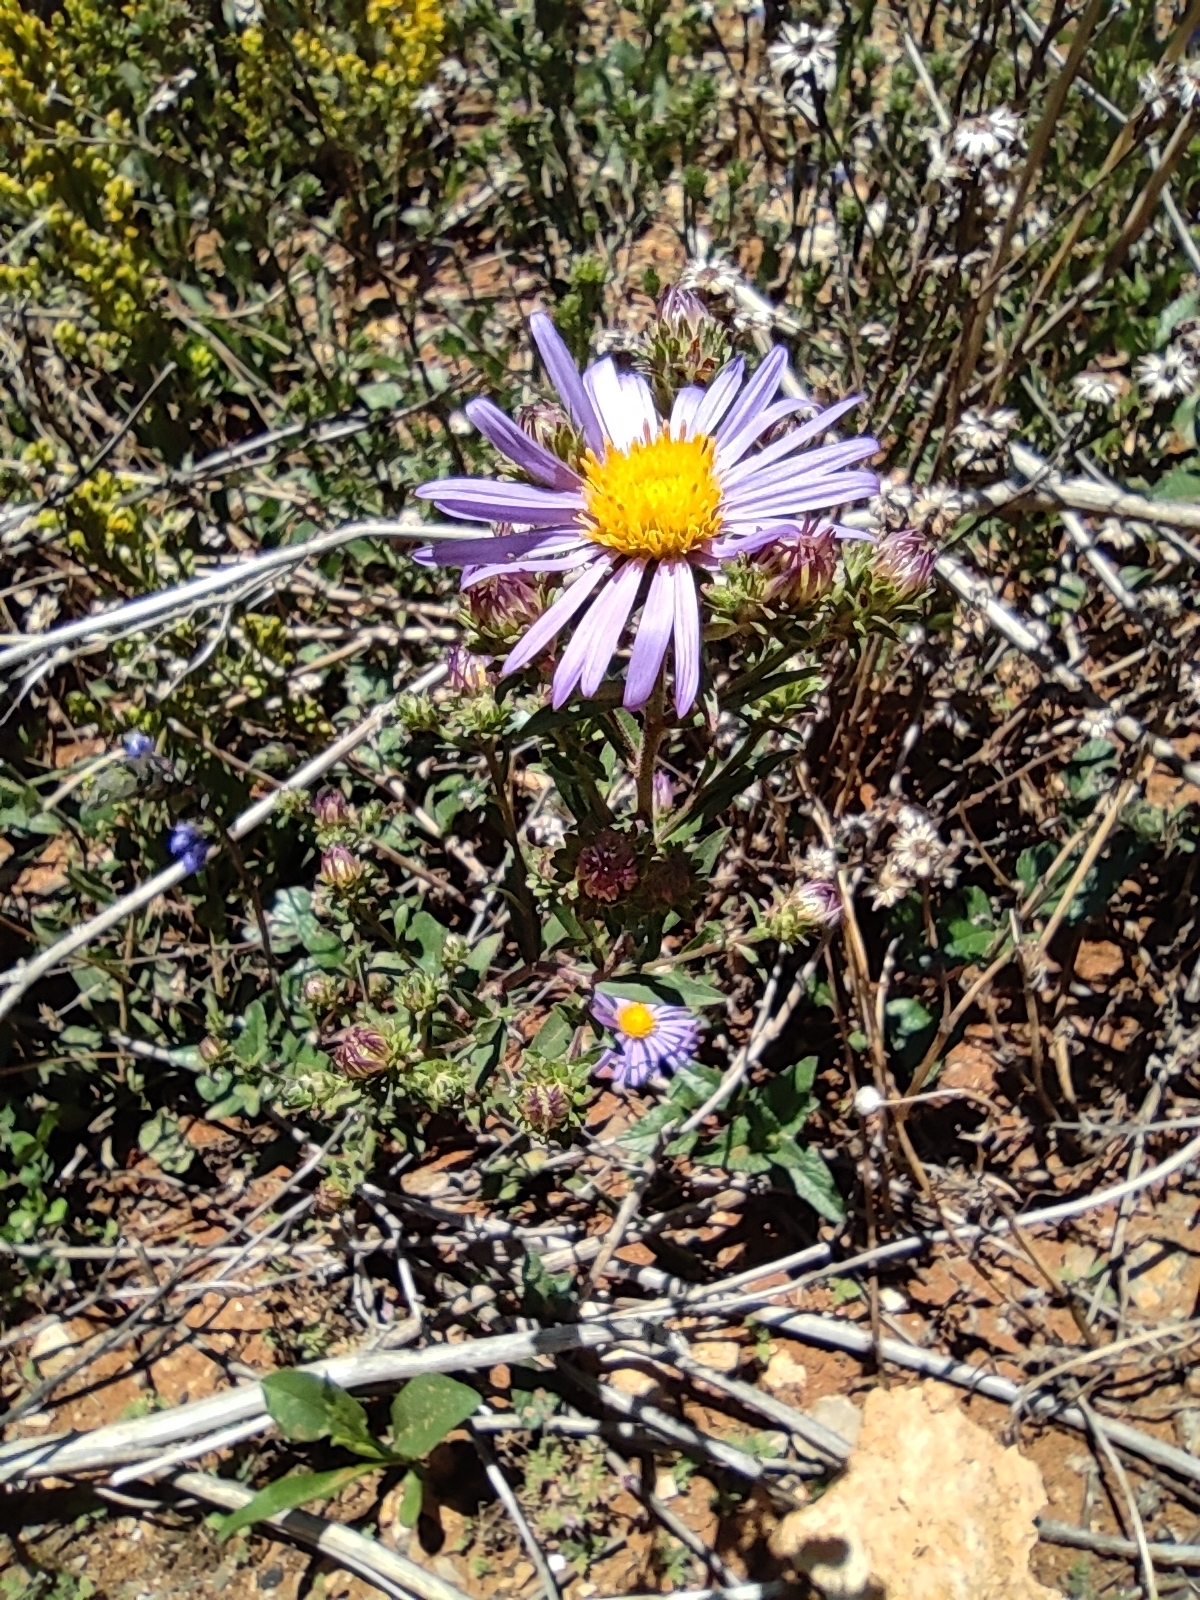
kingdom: Plantae
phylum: Tracheophyta
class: Magnoliopsida
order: Asterales
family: Asteraceae
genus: Symphyotrichum
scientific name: Symphyotrichum carnerosanum
